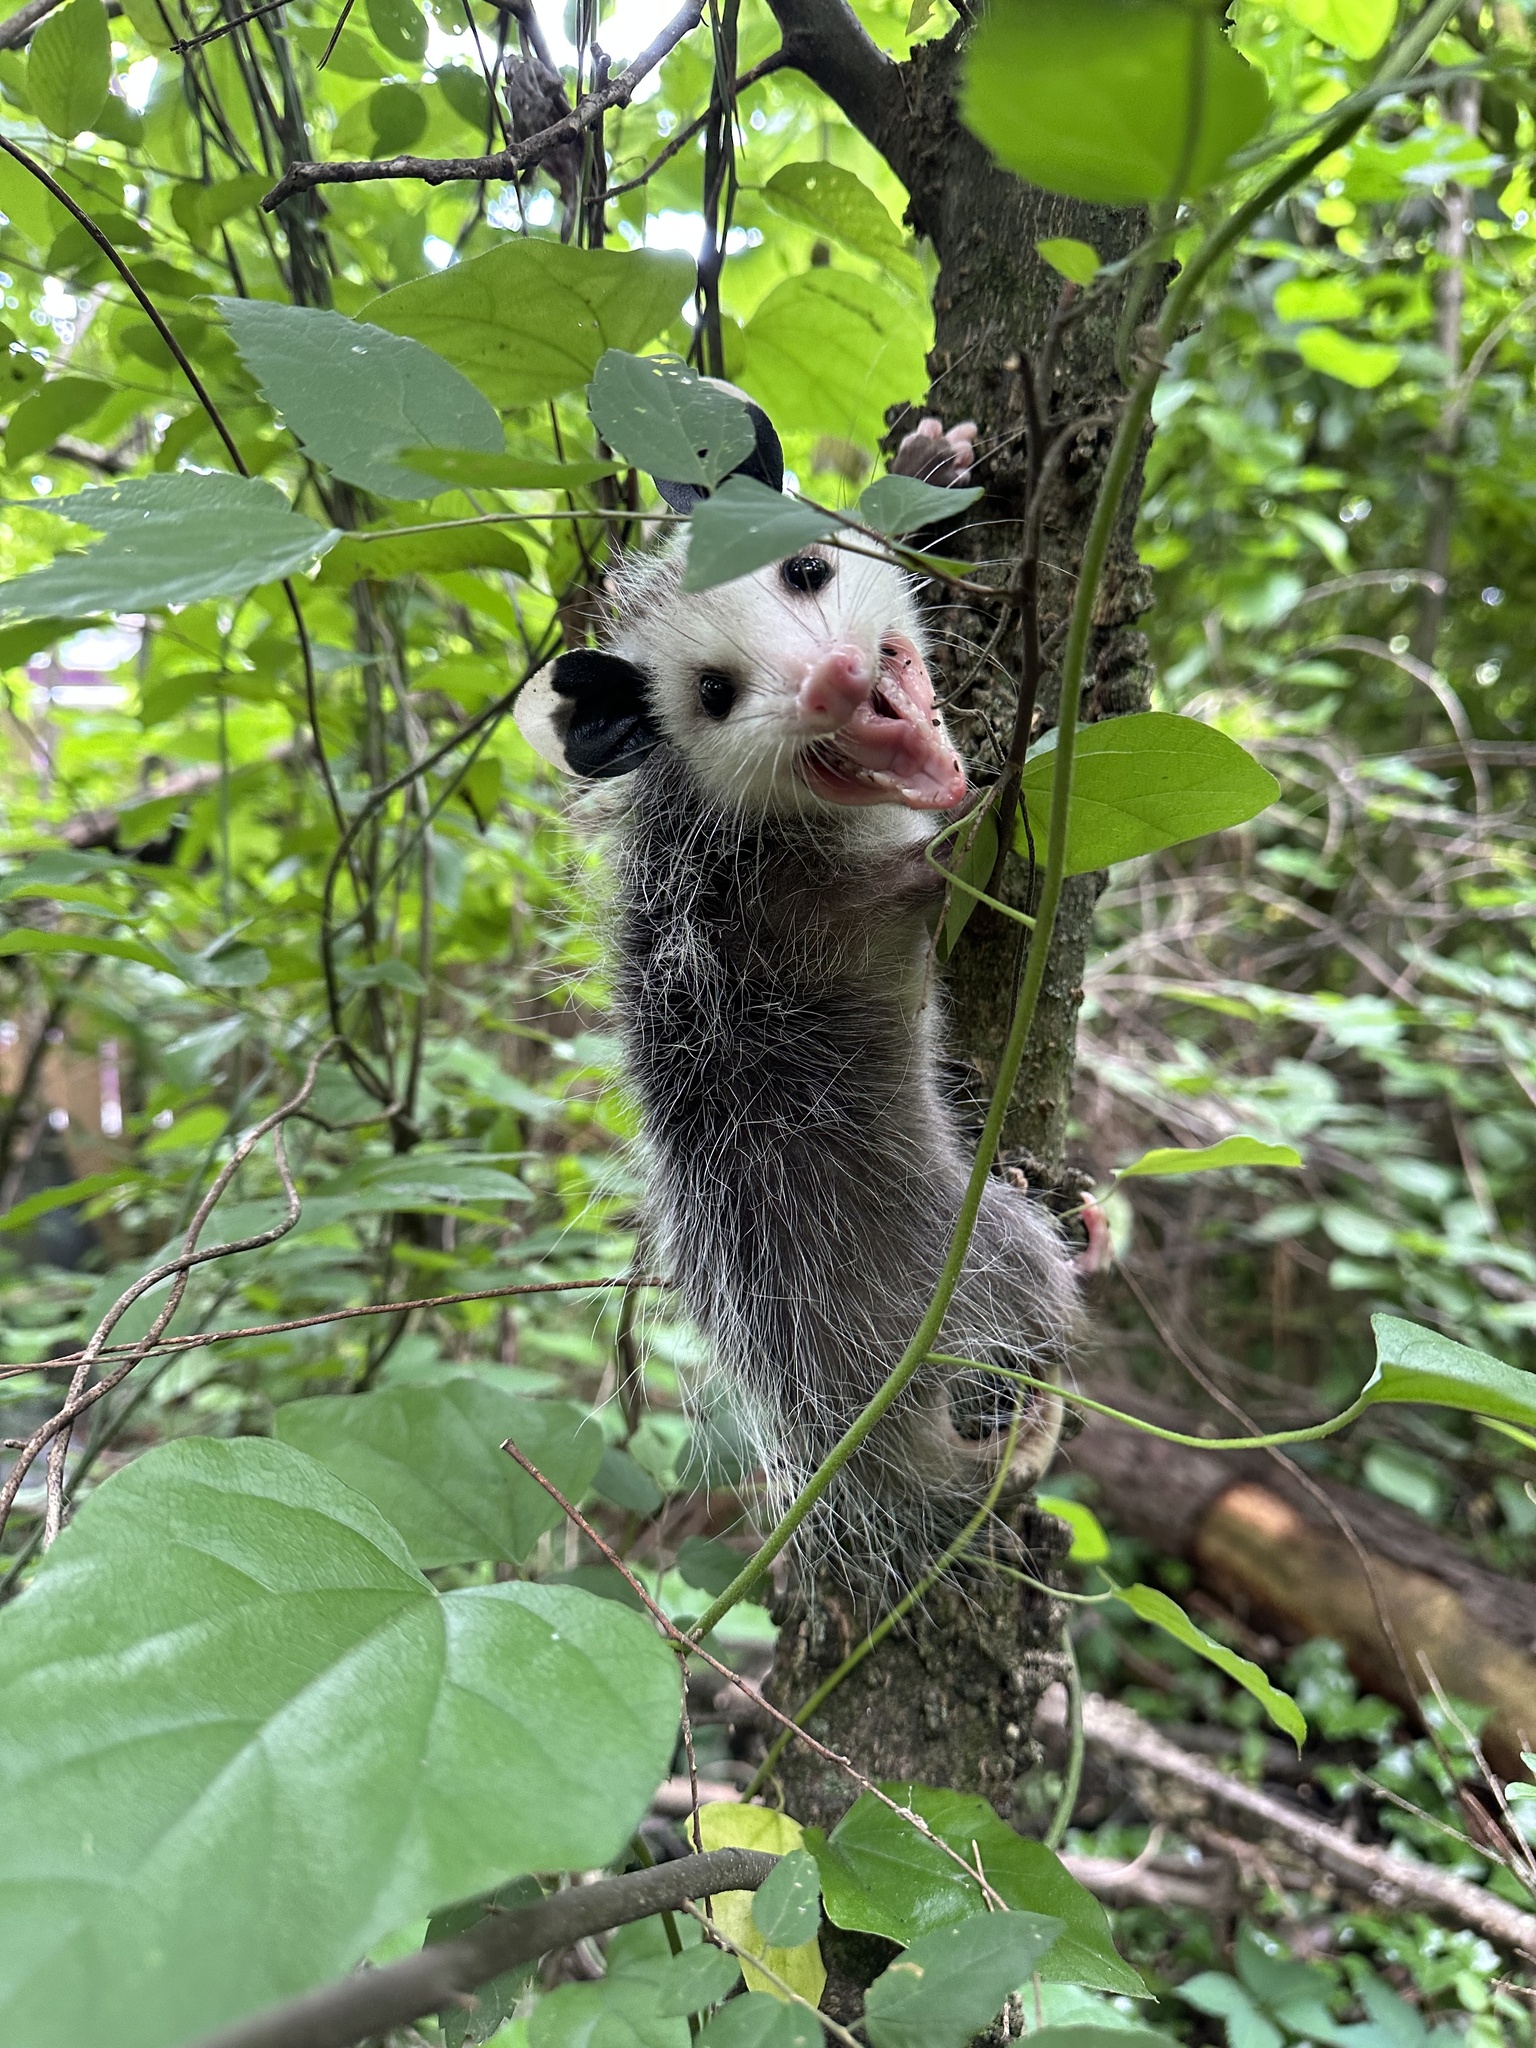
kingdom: Animalia
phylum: Chordata
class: Mammalia
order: Didelphimorphia
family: Didelphidae
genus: Didelphis
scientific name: Didelphis virginiana
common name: Virginia opossum
